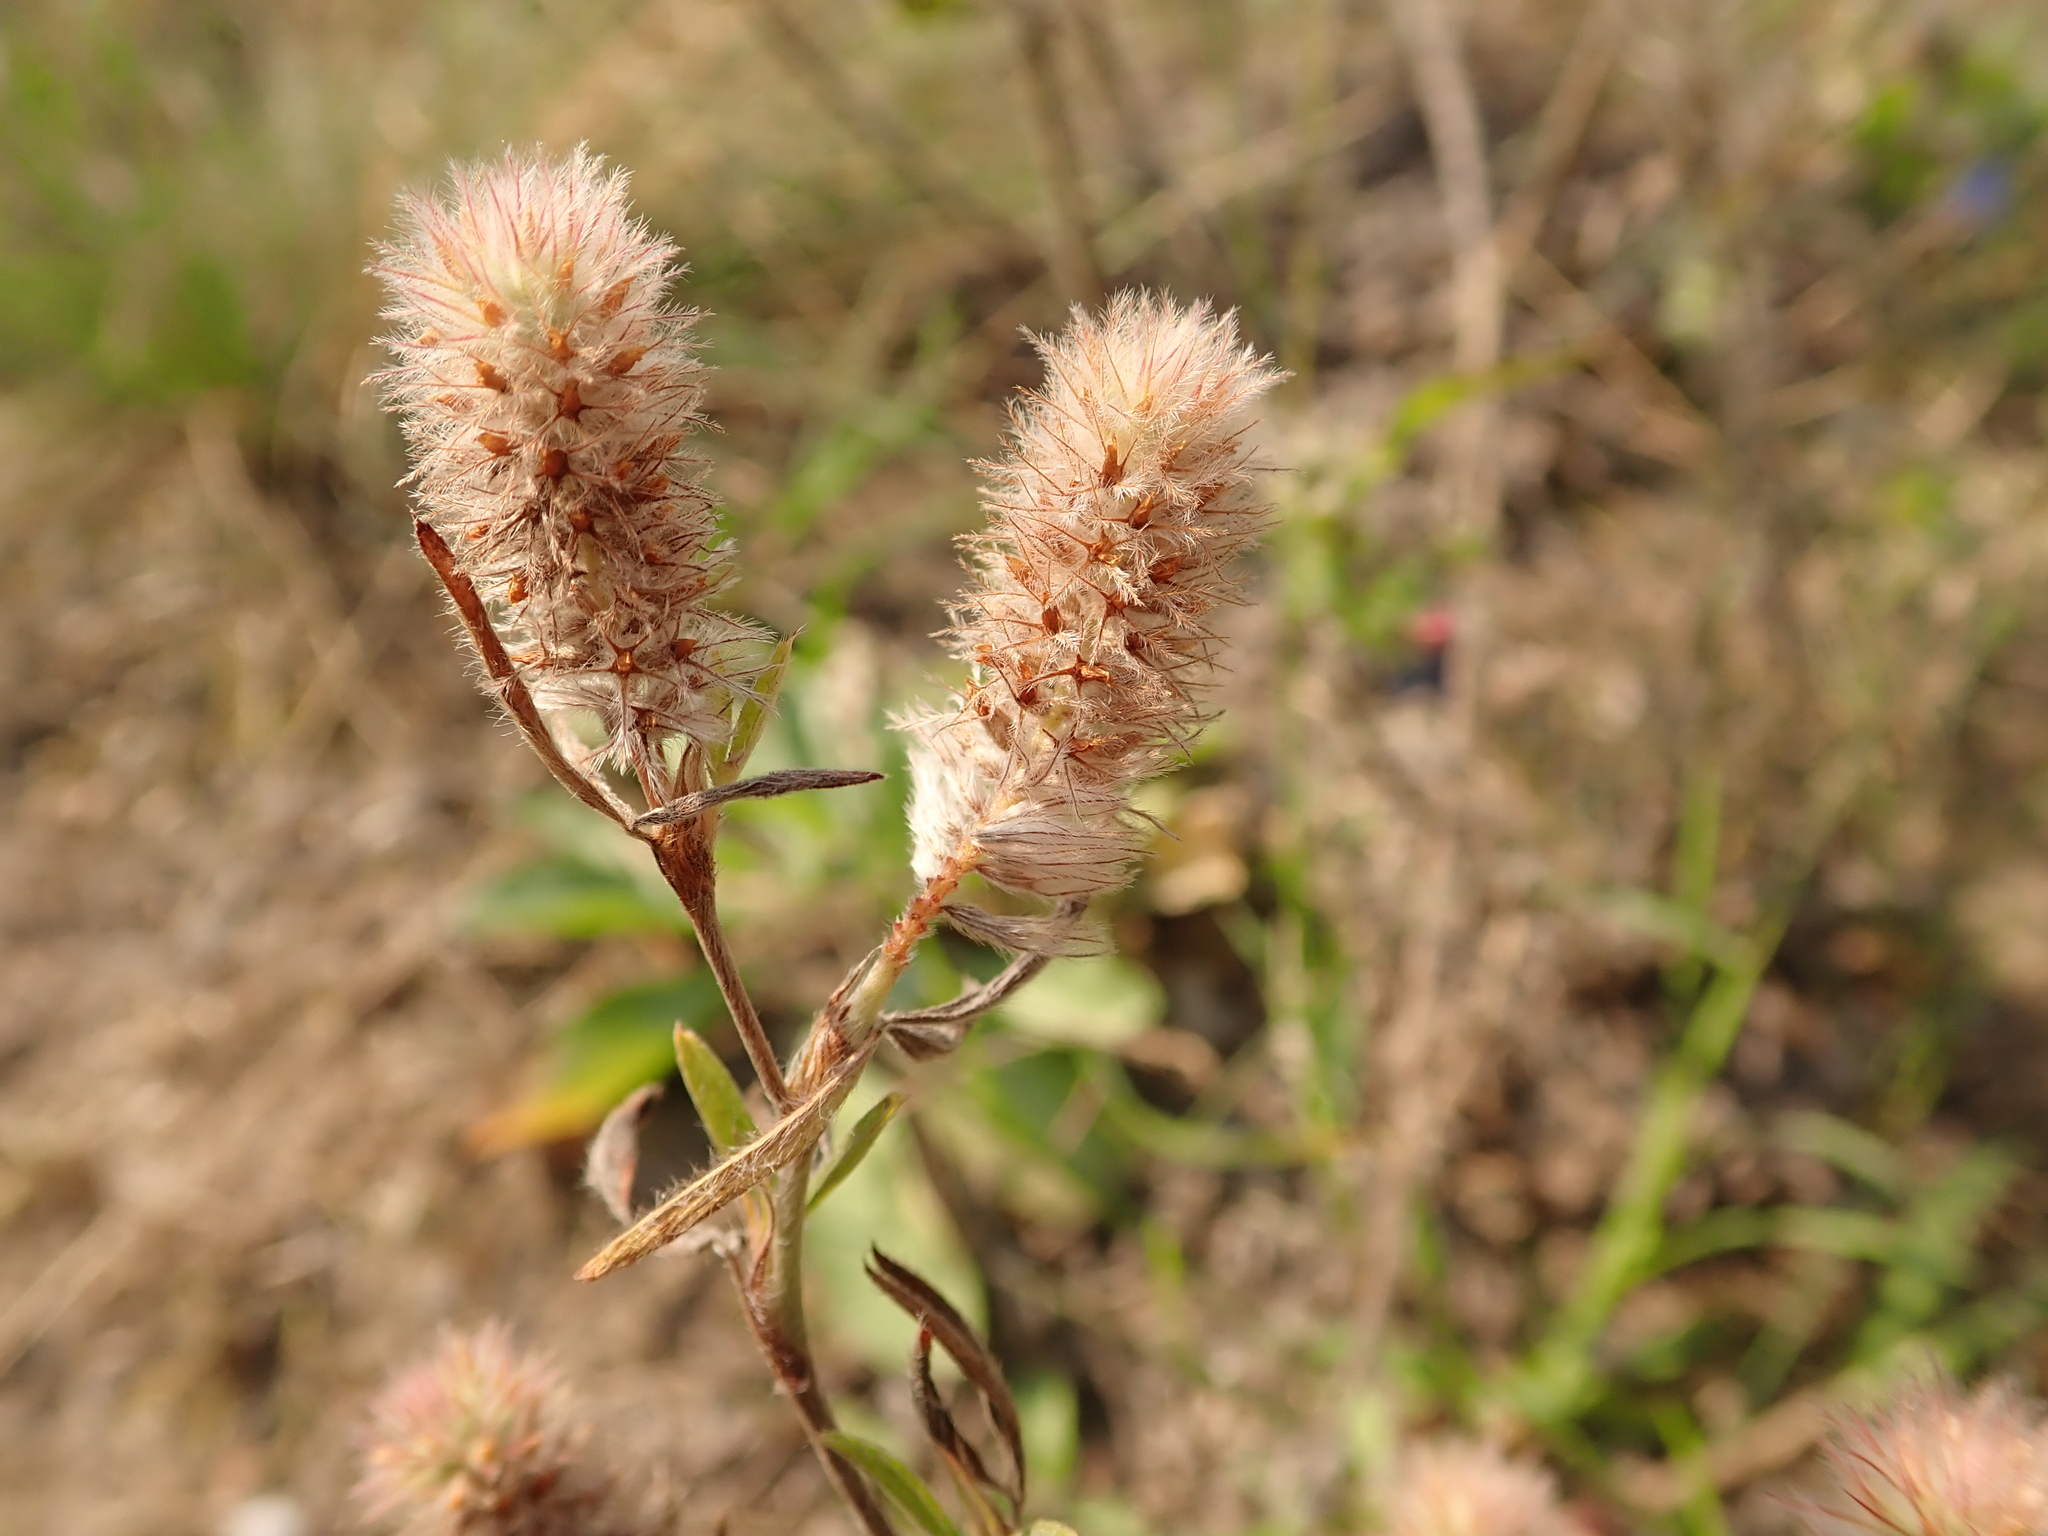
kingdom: Plantae
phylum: Tracheophyta
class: Magnoliopsida
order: Fabales
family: Fabaceae
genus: Trifolium
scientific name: Trifolium arvense
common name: Hare's-foot clover
